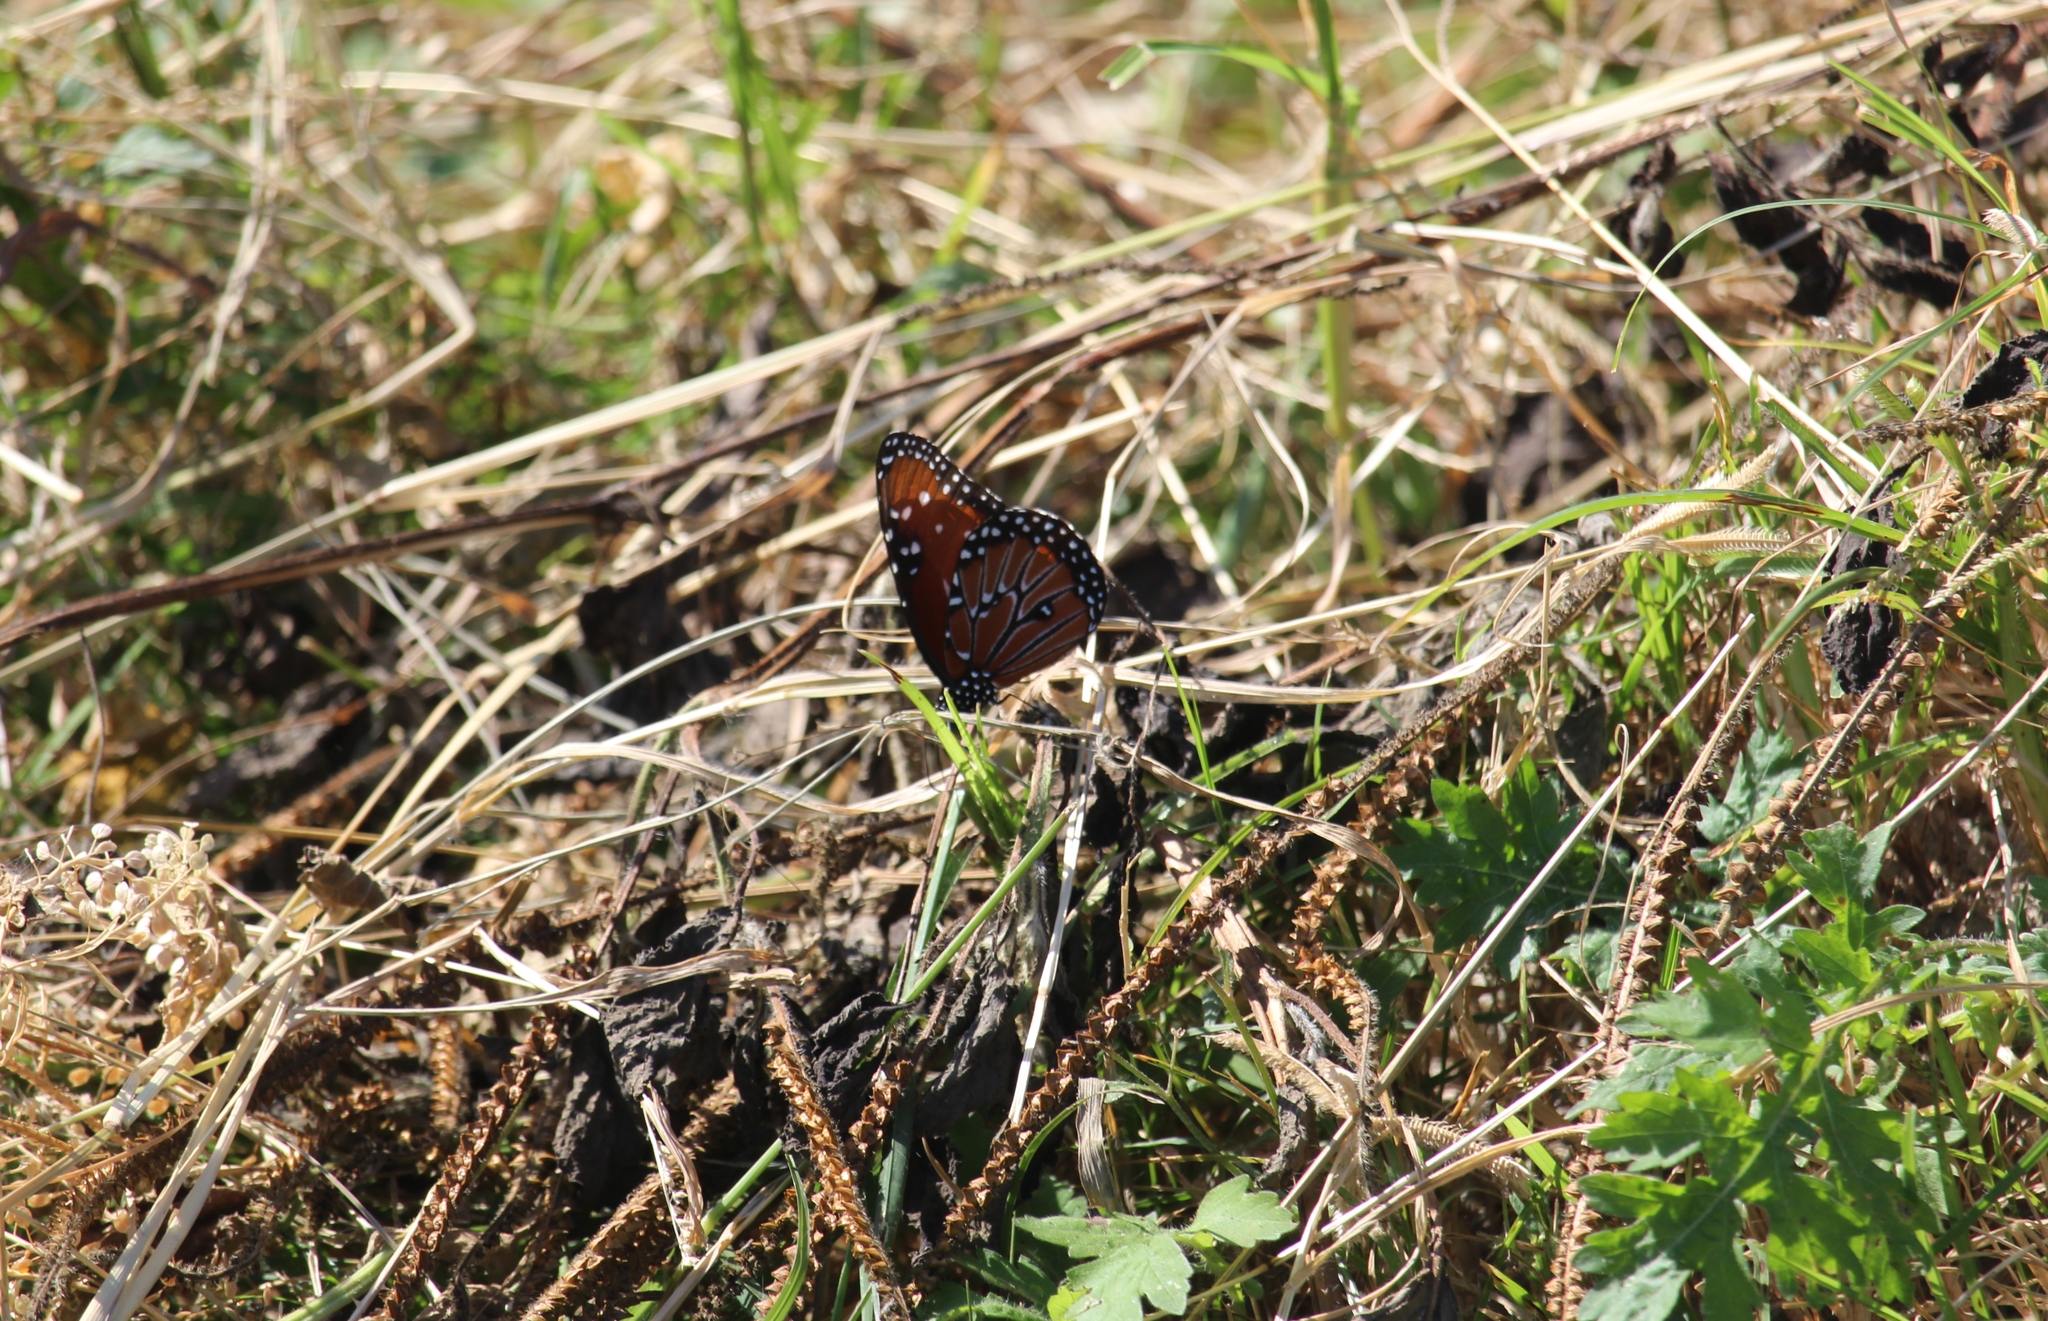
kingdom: Animalia
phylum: Arthropoda
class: Insecta
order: Lepidoptera
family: Nymphalidae
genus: Danaus
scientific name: Danaus gilippus
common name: Queen
